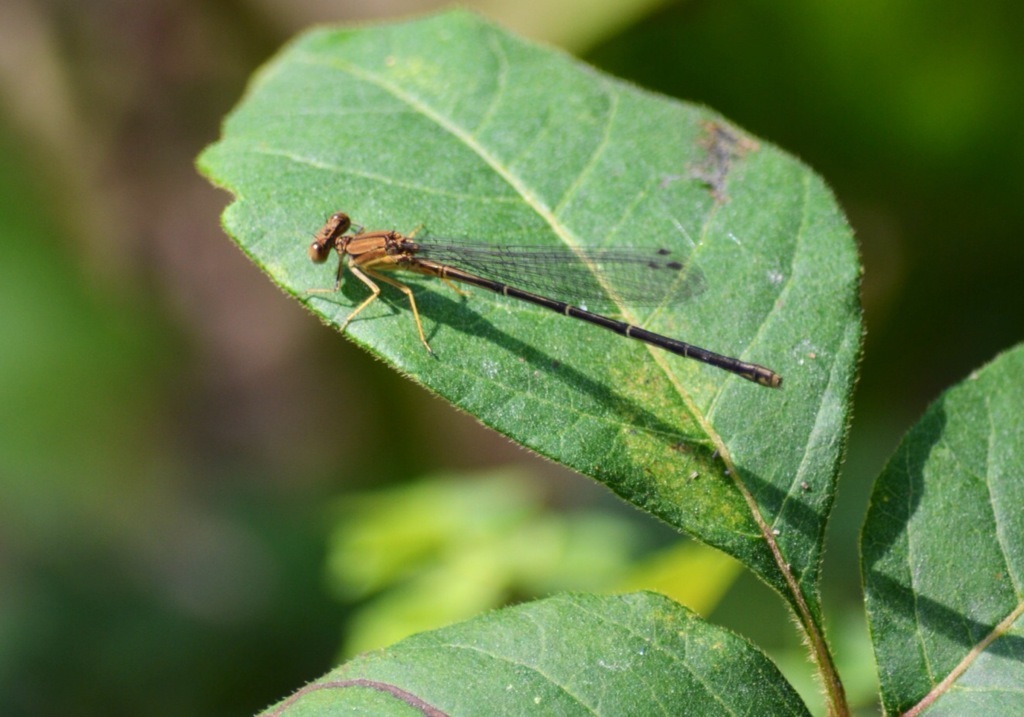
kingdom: Animalia
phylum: Arthropoda
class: Insecta
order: Odonata
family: Coenagrionidae
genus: Argia
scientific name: Argia apicalis
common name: Blue-fronted dancer
